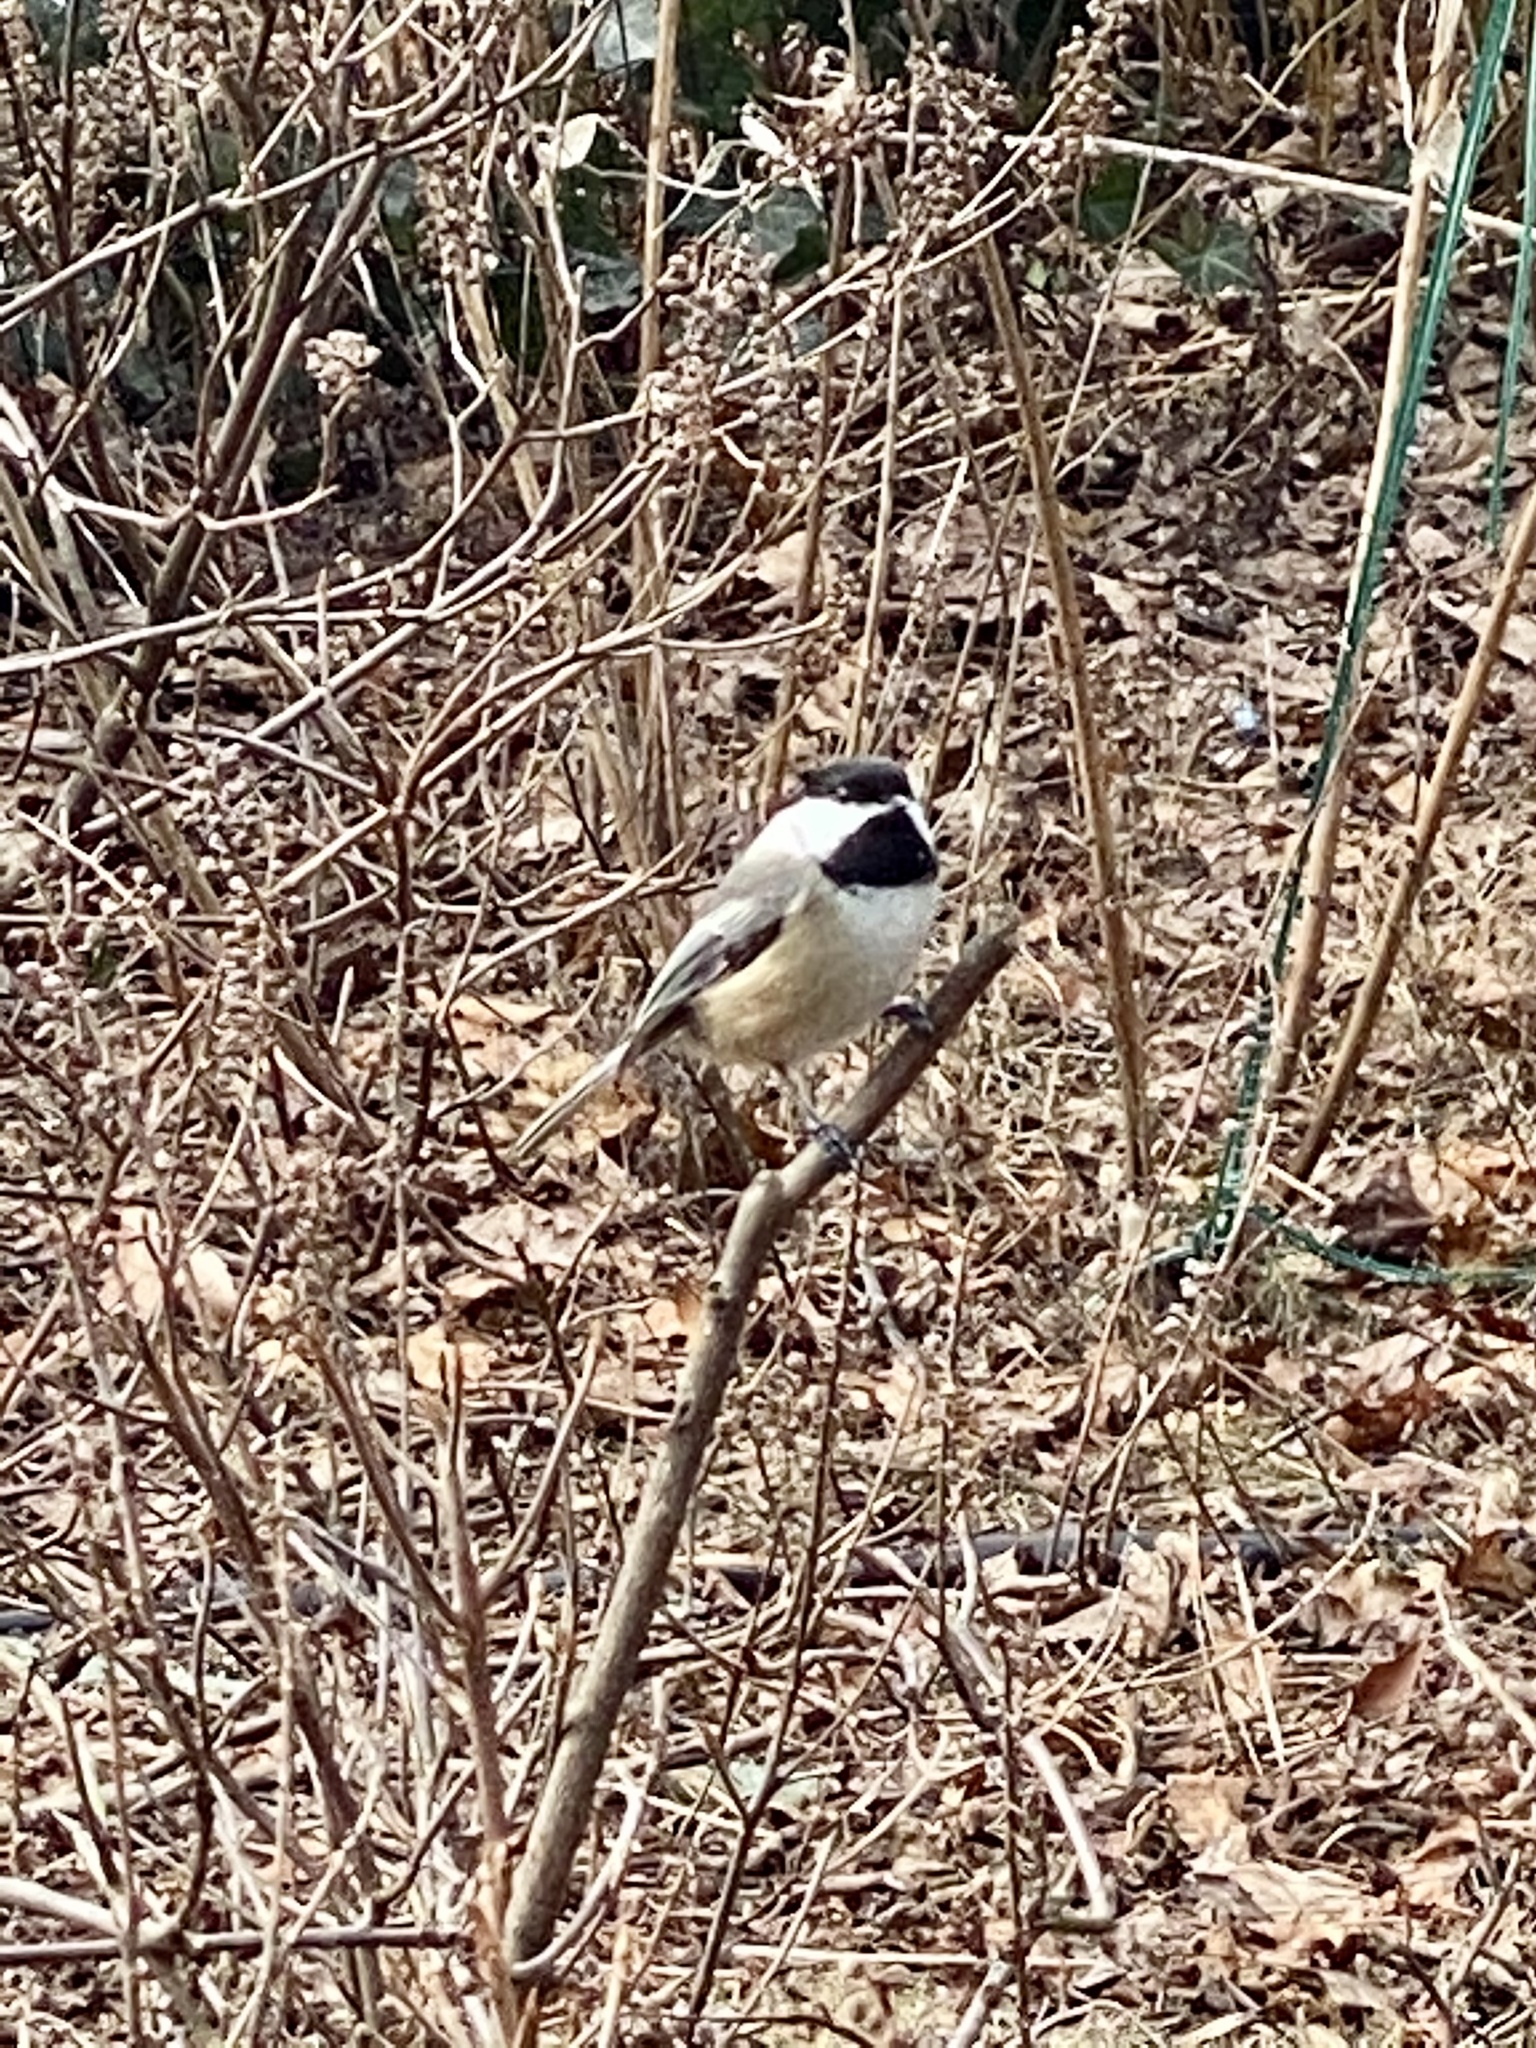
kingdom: Animalia
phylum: Chordata
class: Aves
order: Passeriformes
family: Paridae
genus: Poecile
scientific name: Poecile atricapillus
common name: Black-capped chickadee
